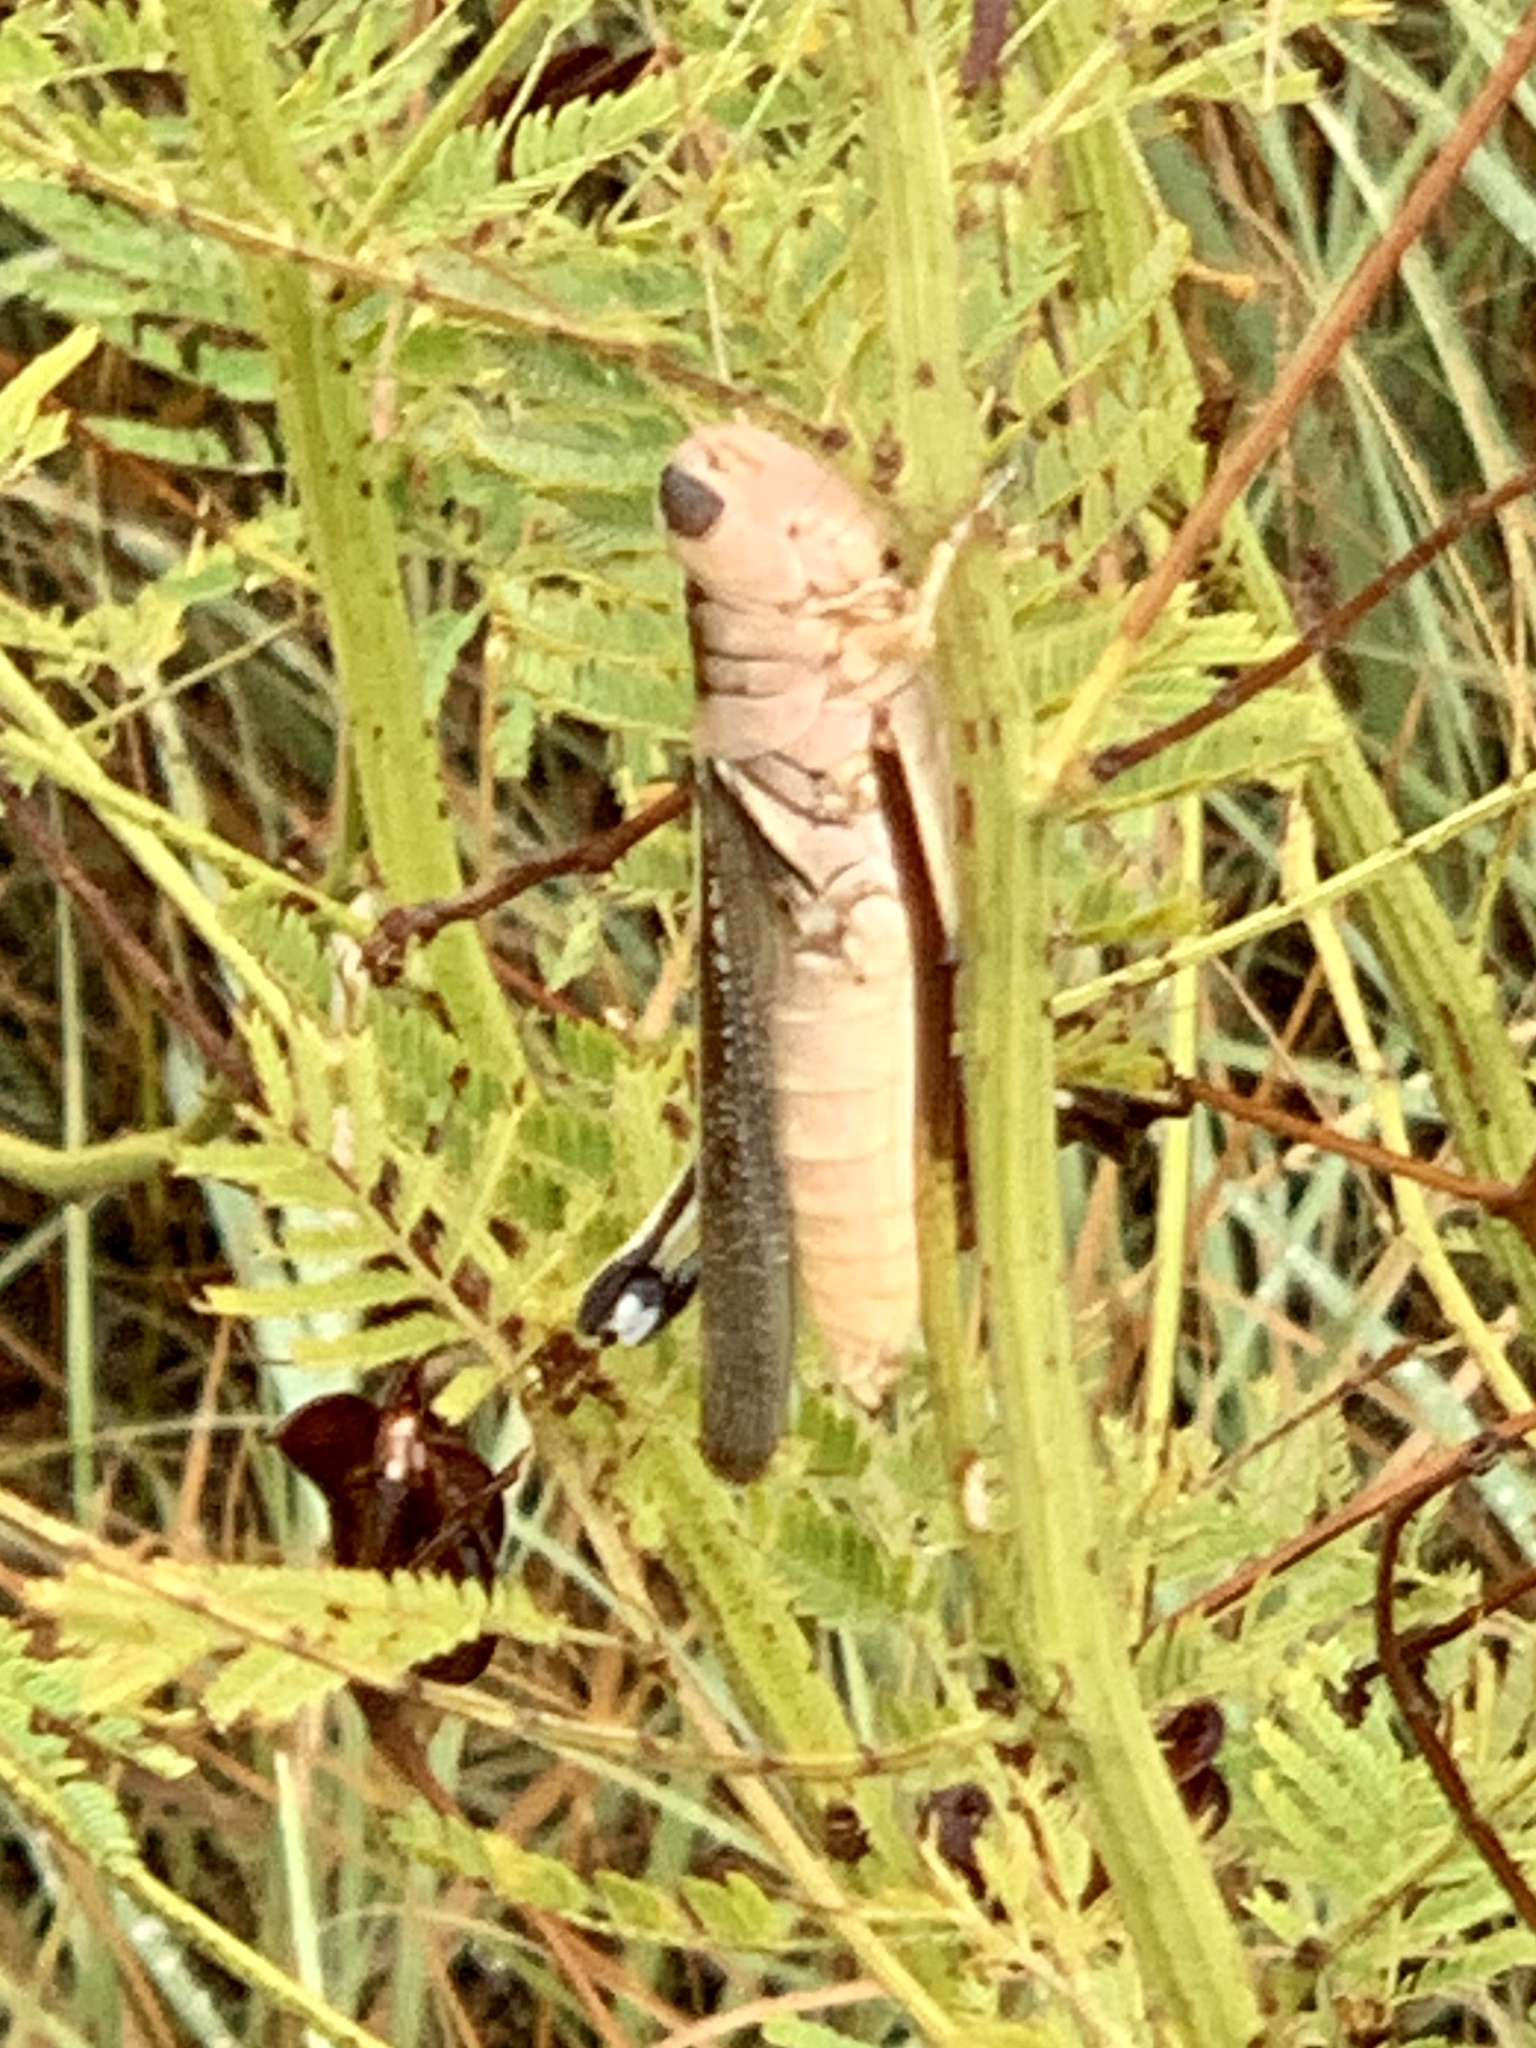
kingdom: Animalia
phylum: Arthropoda
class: Insecta
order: Orthoptera
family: Acrididae
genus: Melanoplus
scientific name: Melanoplus bivittatus
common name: Two-striped grasshopper
